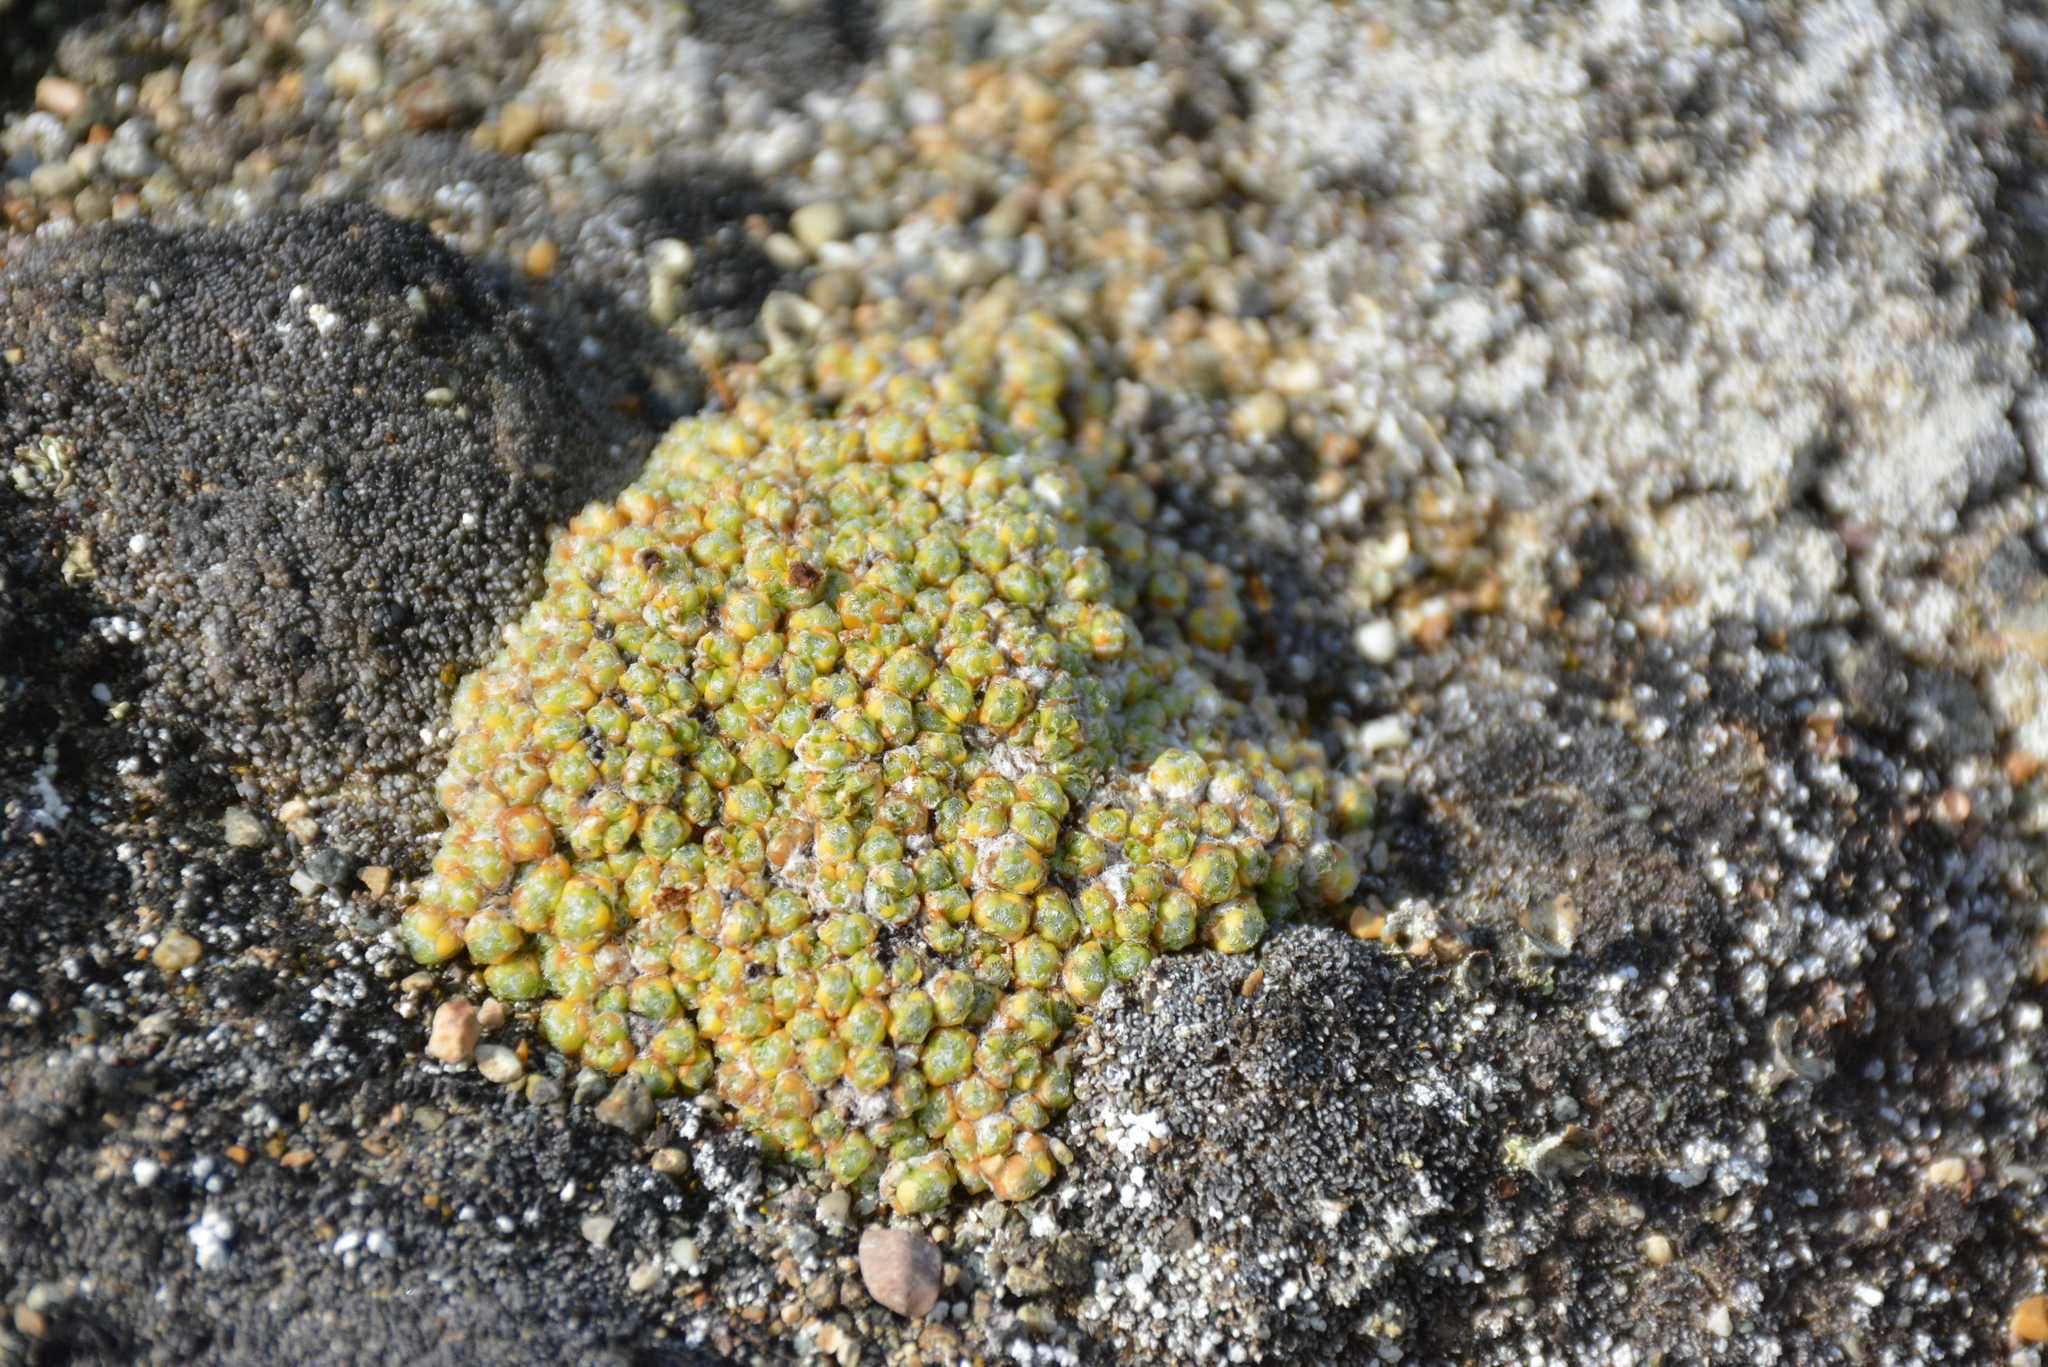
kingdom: Plantae
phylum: Tracheophyta
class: Magnoliopsida
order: Saxifragales
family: Saxifragaceae
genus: Saxifraga
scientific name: Saxifraga eschscholtzii
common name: Eschscholtz's saxifrage
